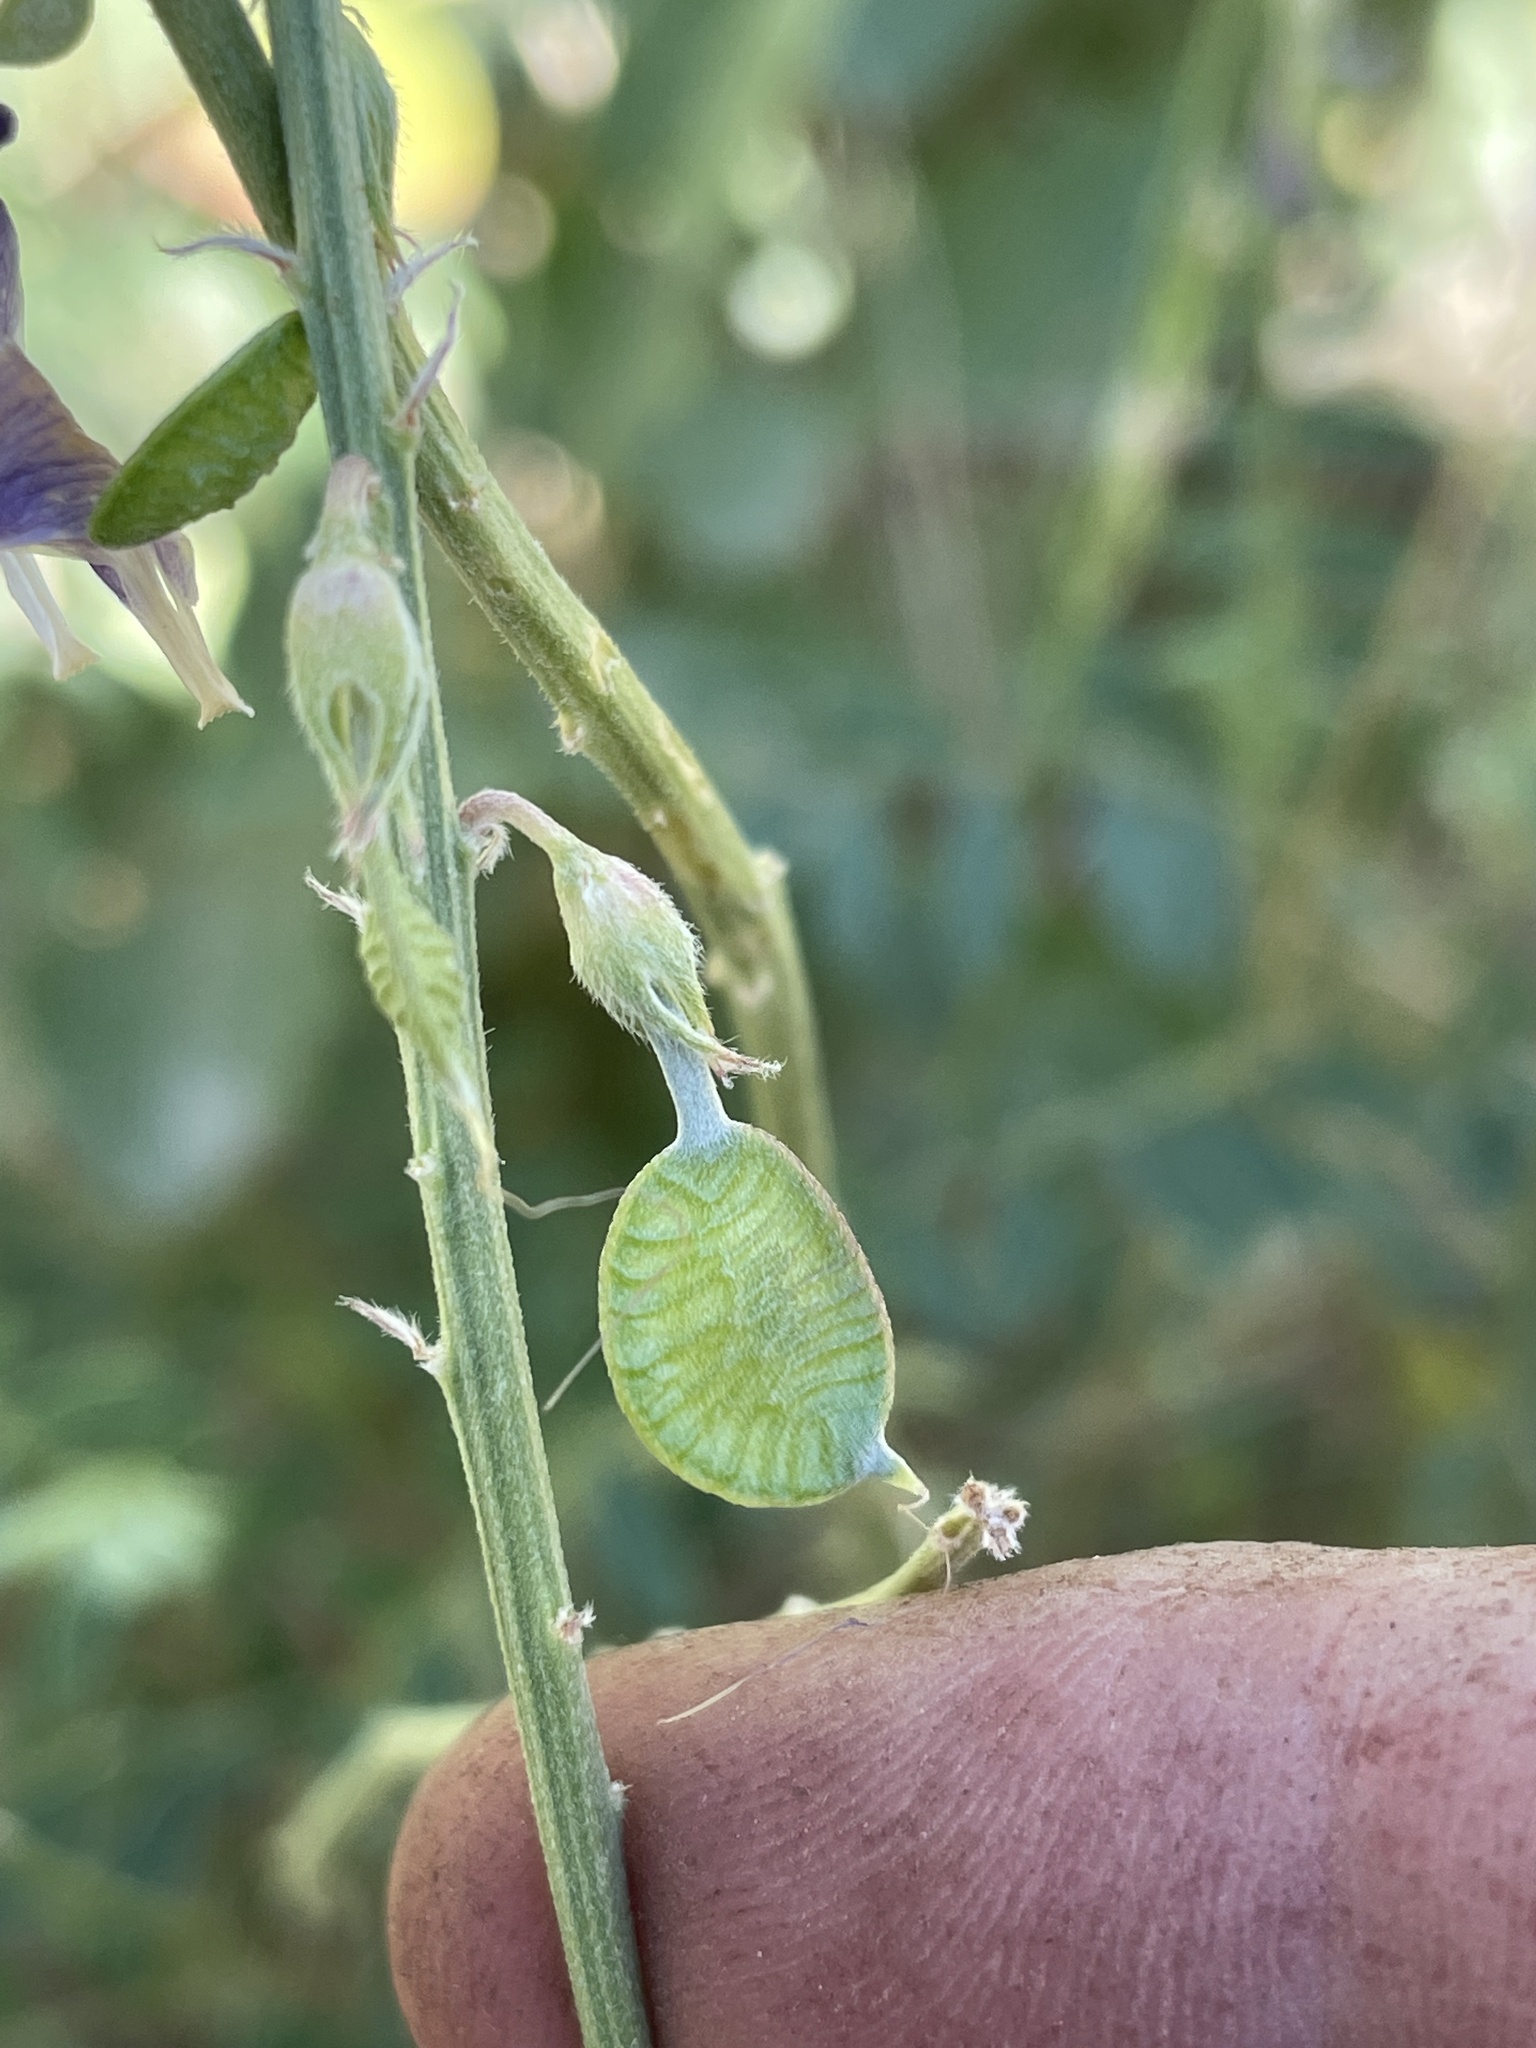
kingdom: Plantae
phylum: Tracheophyta
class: Magnoliopsida
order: Fabales
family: Fabaceae
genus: Hedysarum
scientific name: Hedysarum boreale
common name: Northern sweet-vetch
